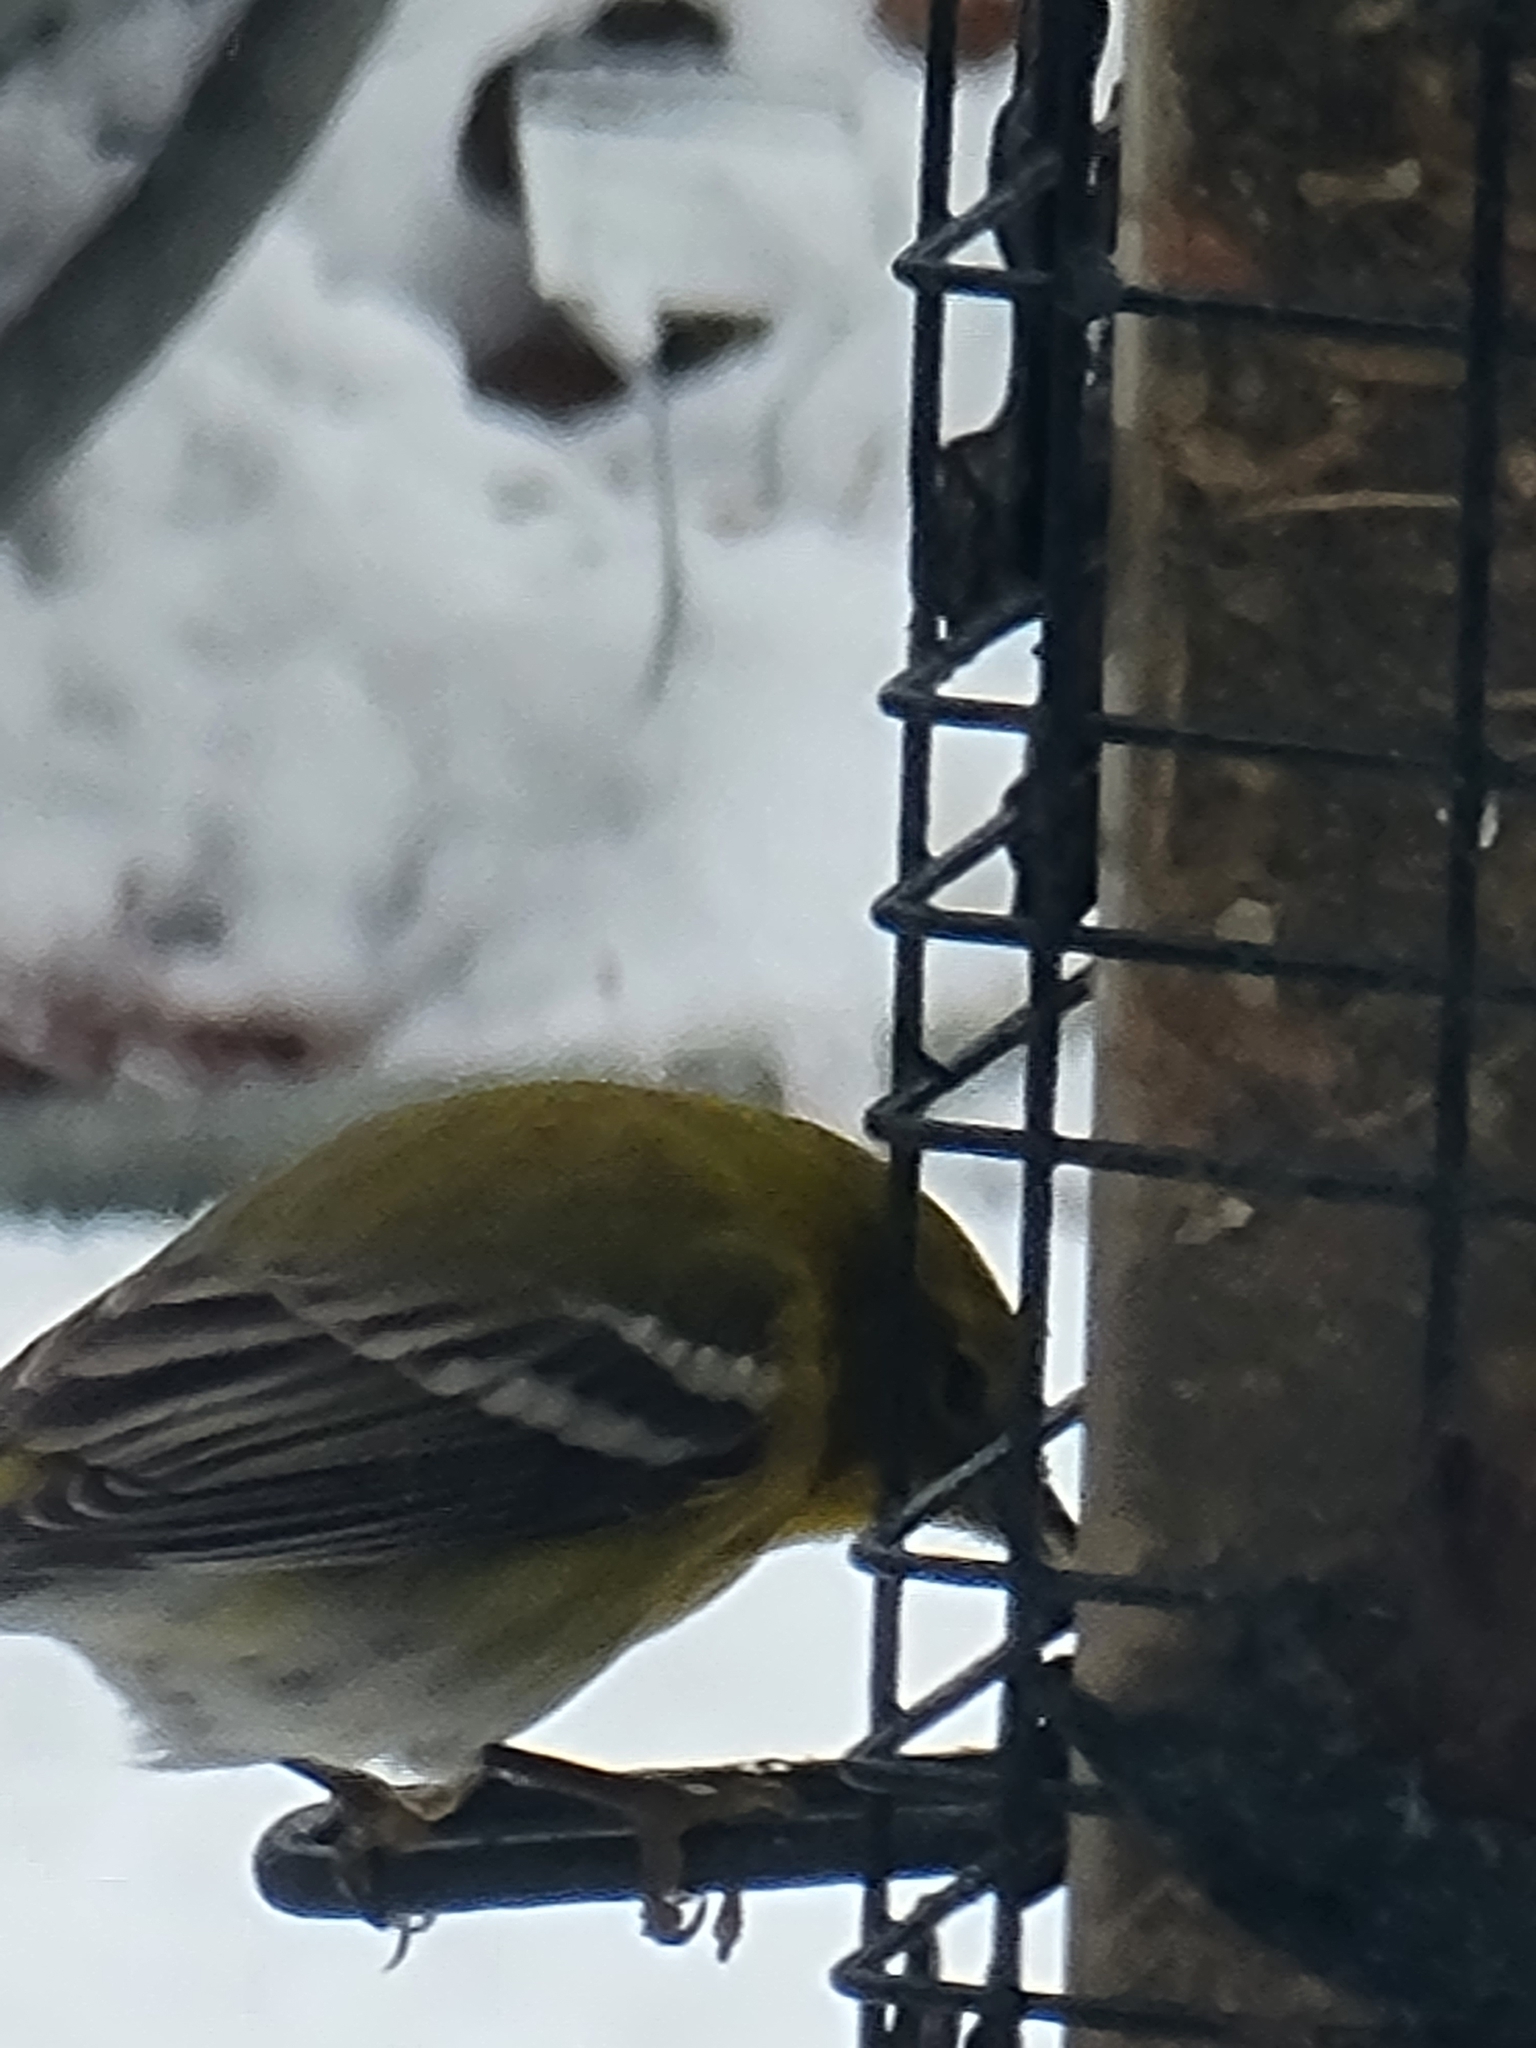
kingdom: Animalia
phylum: Chordata
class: Aves
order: Passeriformes
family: Parulidae
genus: Setophaga
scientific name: Setophaga pinus
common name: Pine warbler
